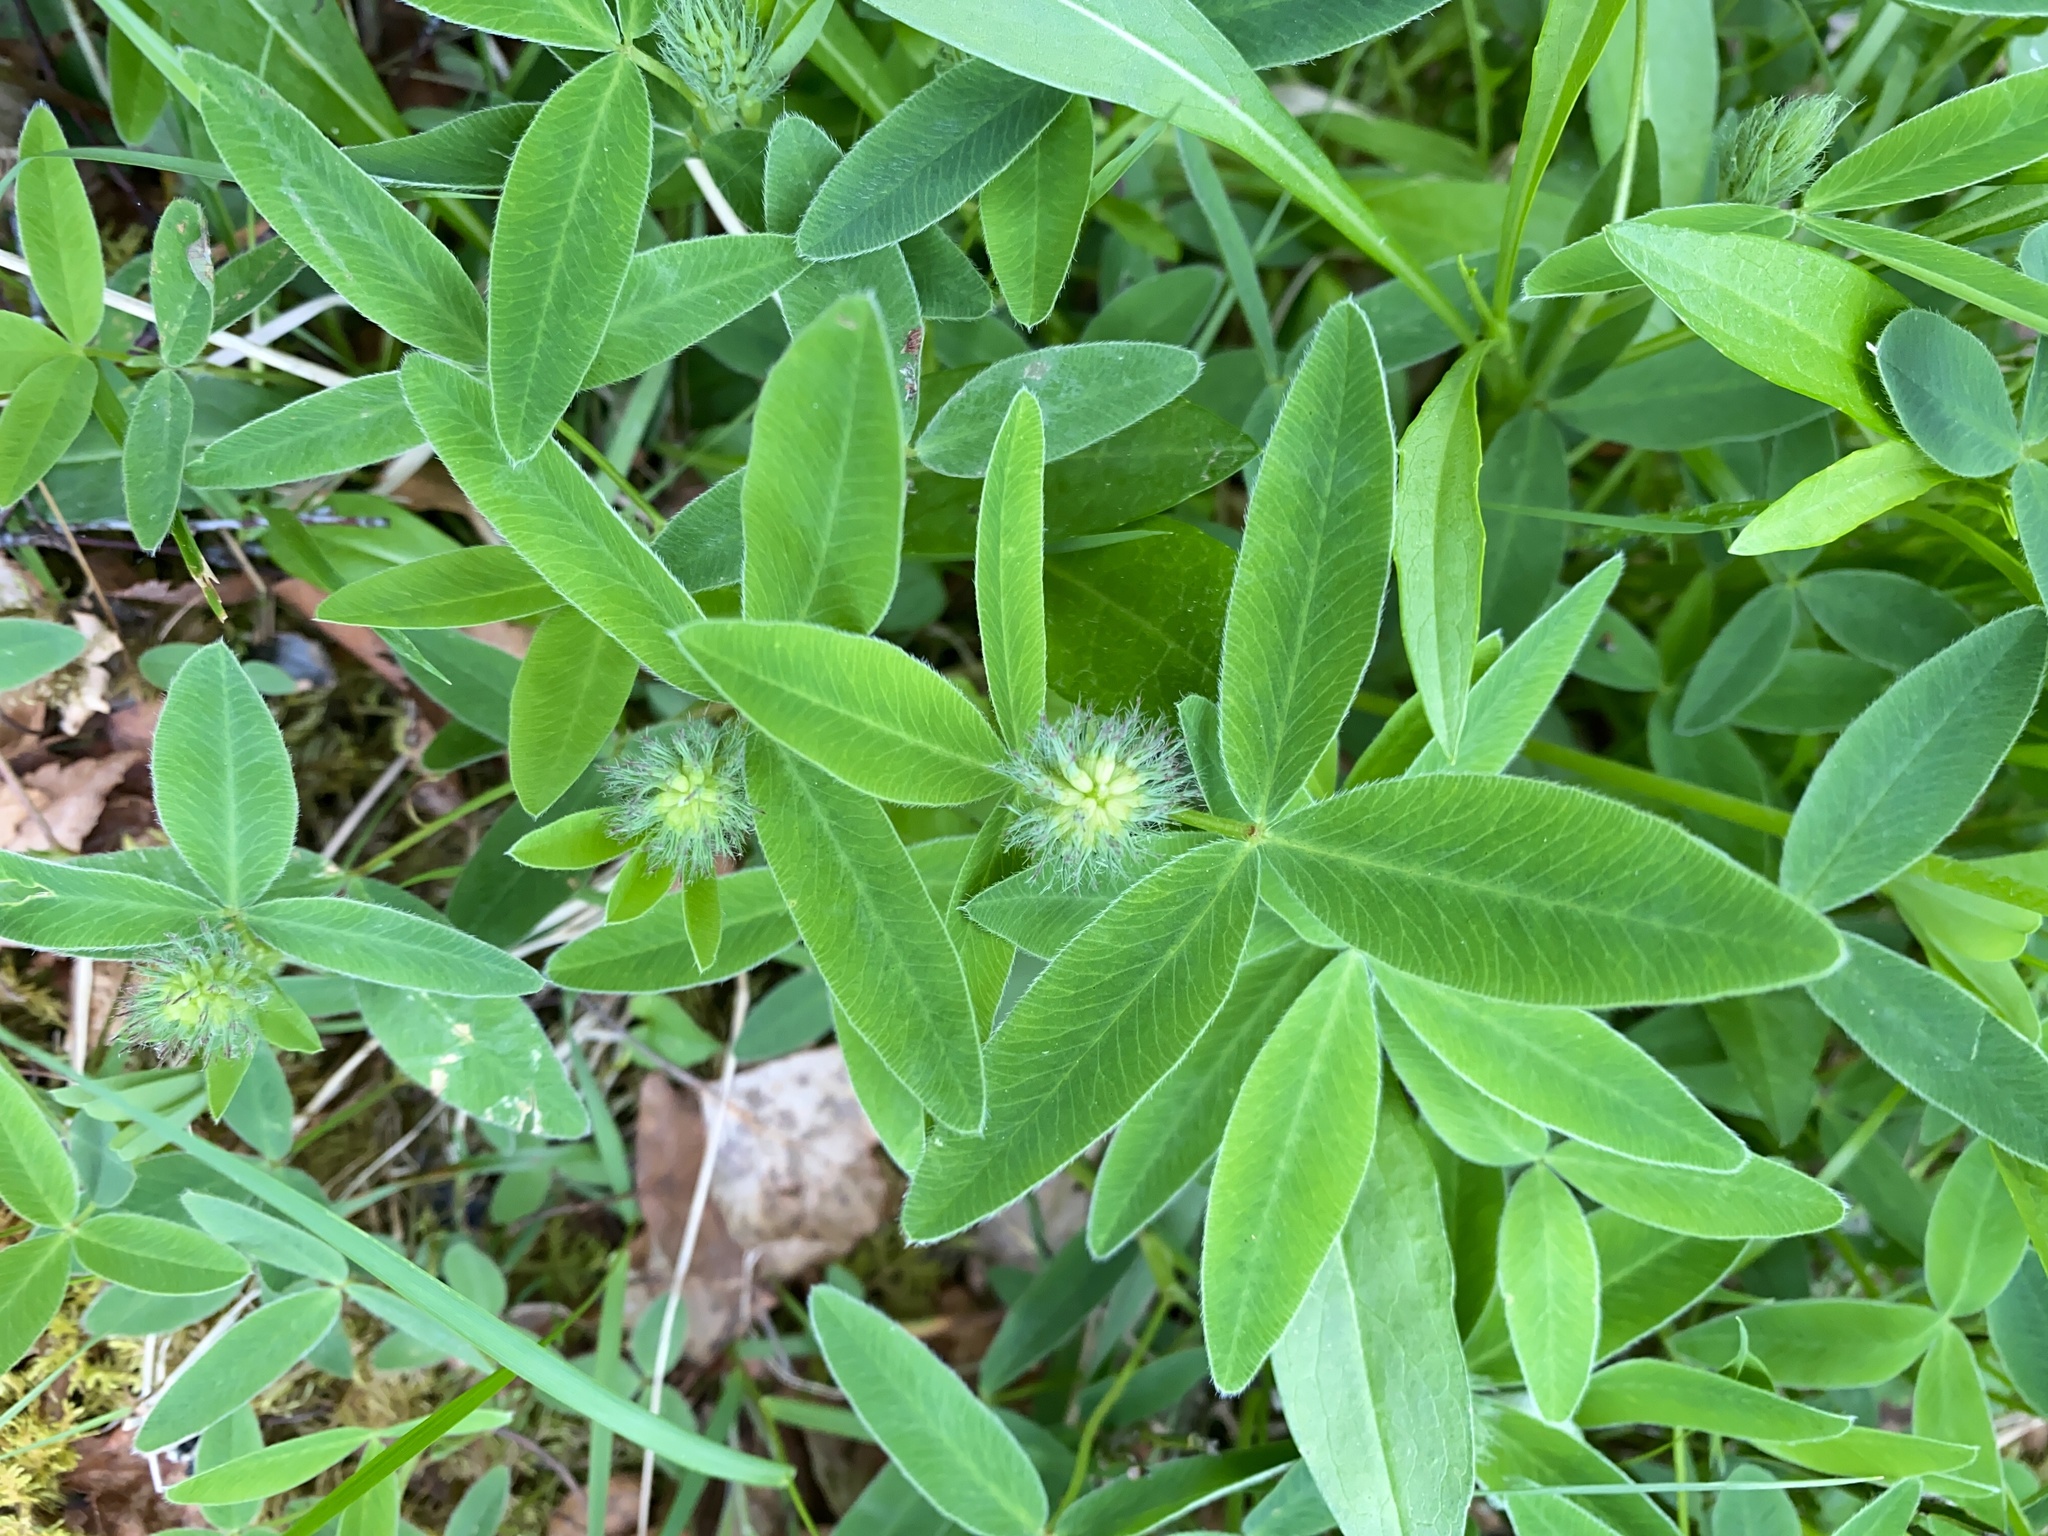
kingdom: Plantae
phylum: Tracheophyta
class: Magnoliopsida
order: Fabales
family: Fabaceae
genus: Trifolium
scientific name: Trifolium medium
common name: Zigzag clover
